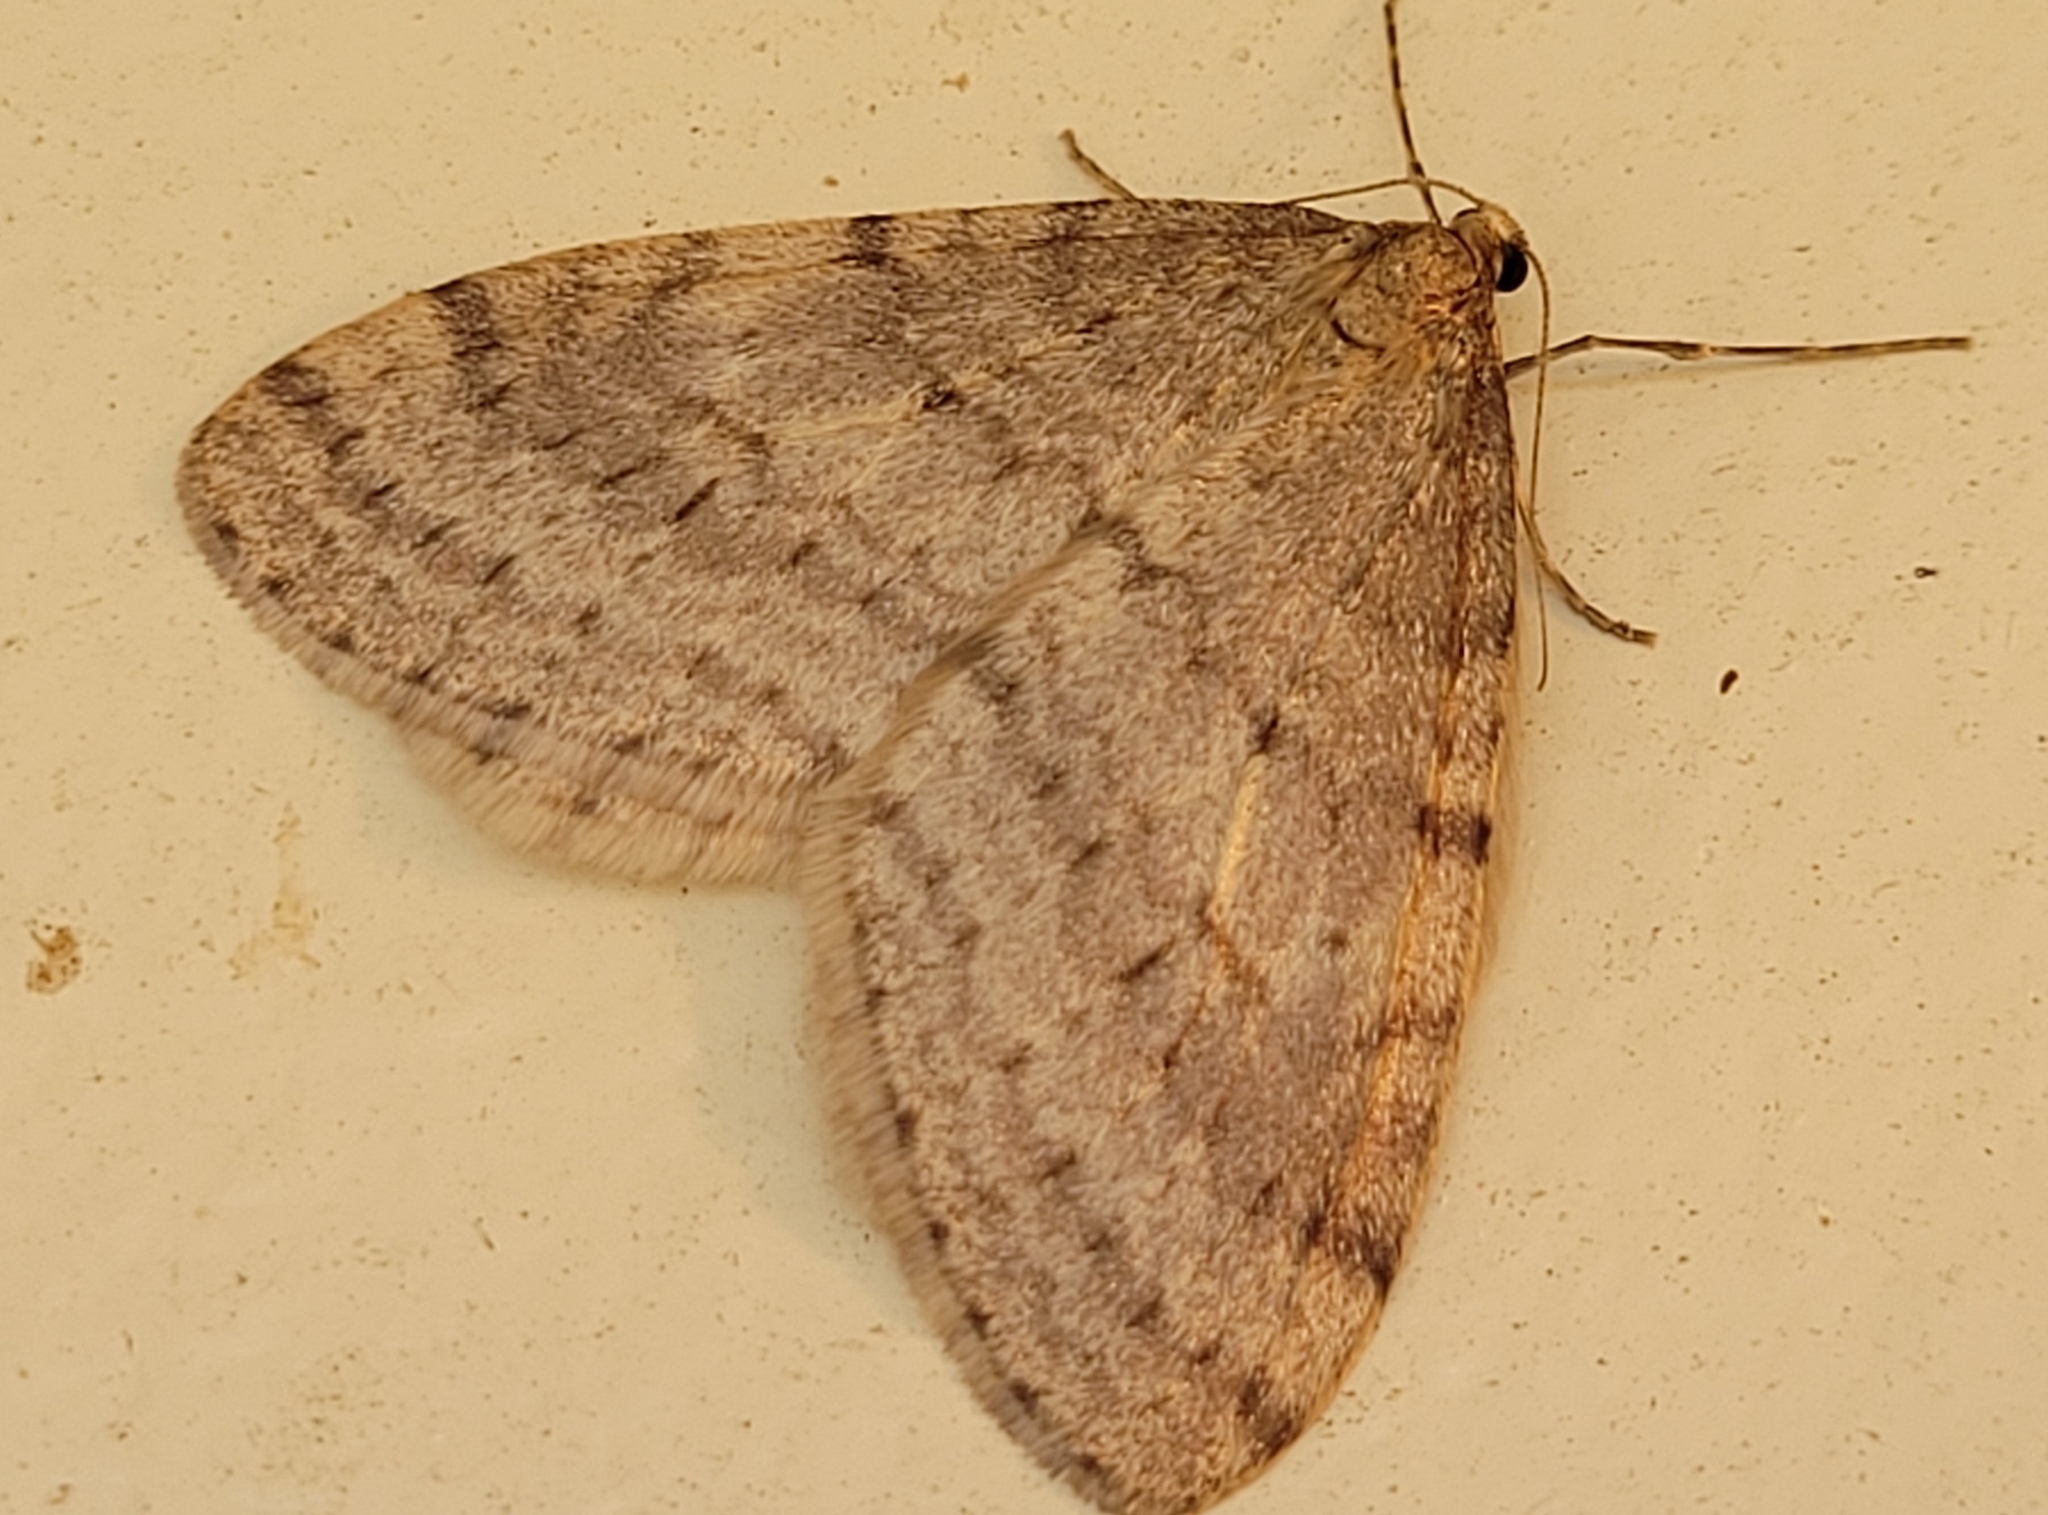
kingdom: Animalia
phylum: Arthropoda
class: Insecta
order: Lepidoptera
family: Geometridae
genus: Operophtera
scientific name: Operophtera bruceata
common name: Bruce spanworm
